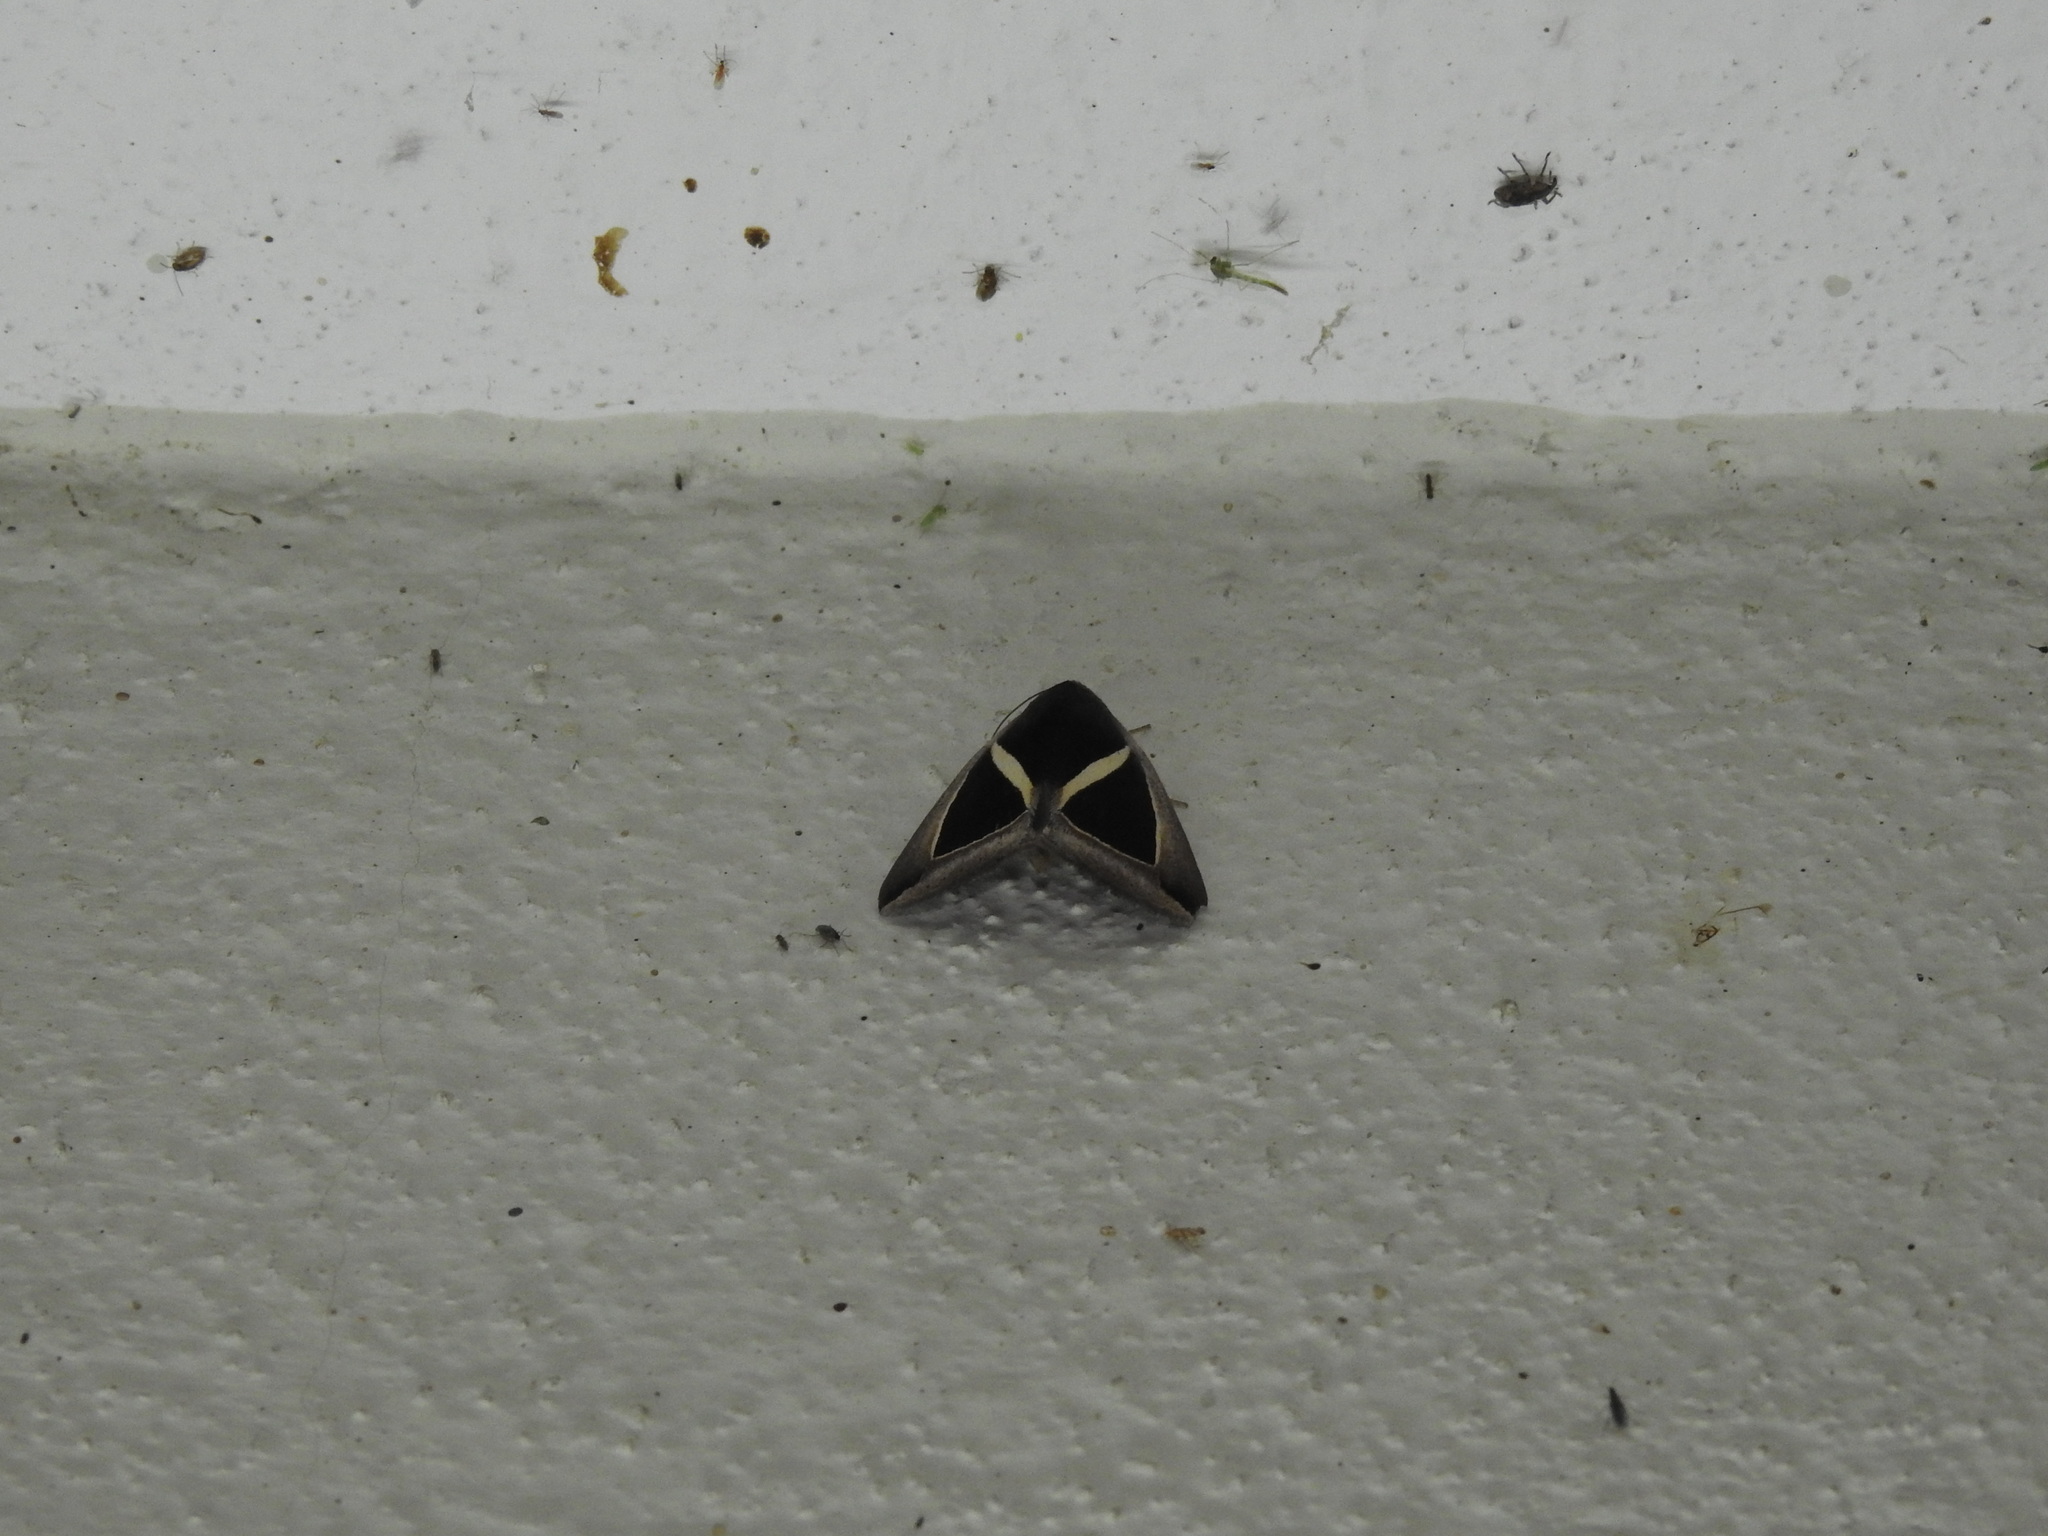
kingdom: Animalia
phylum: Arthropoda
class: Insecta
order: Lepidoptera
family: Erebidae
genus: Chalciope
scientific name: Chalciope mygdon
